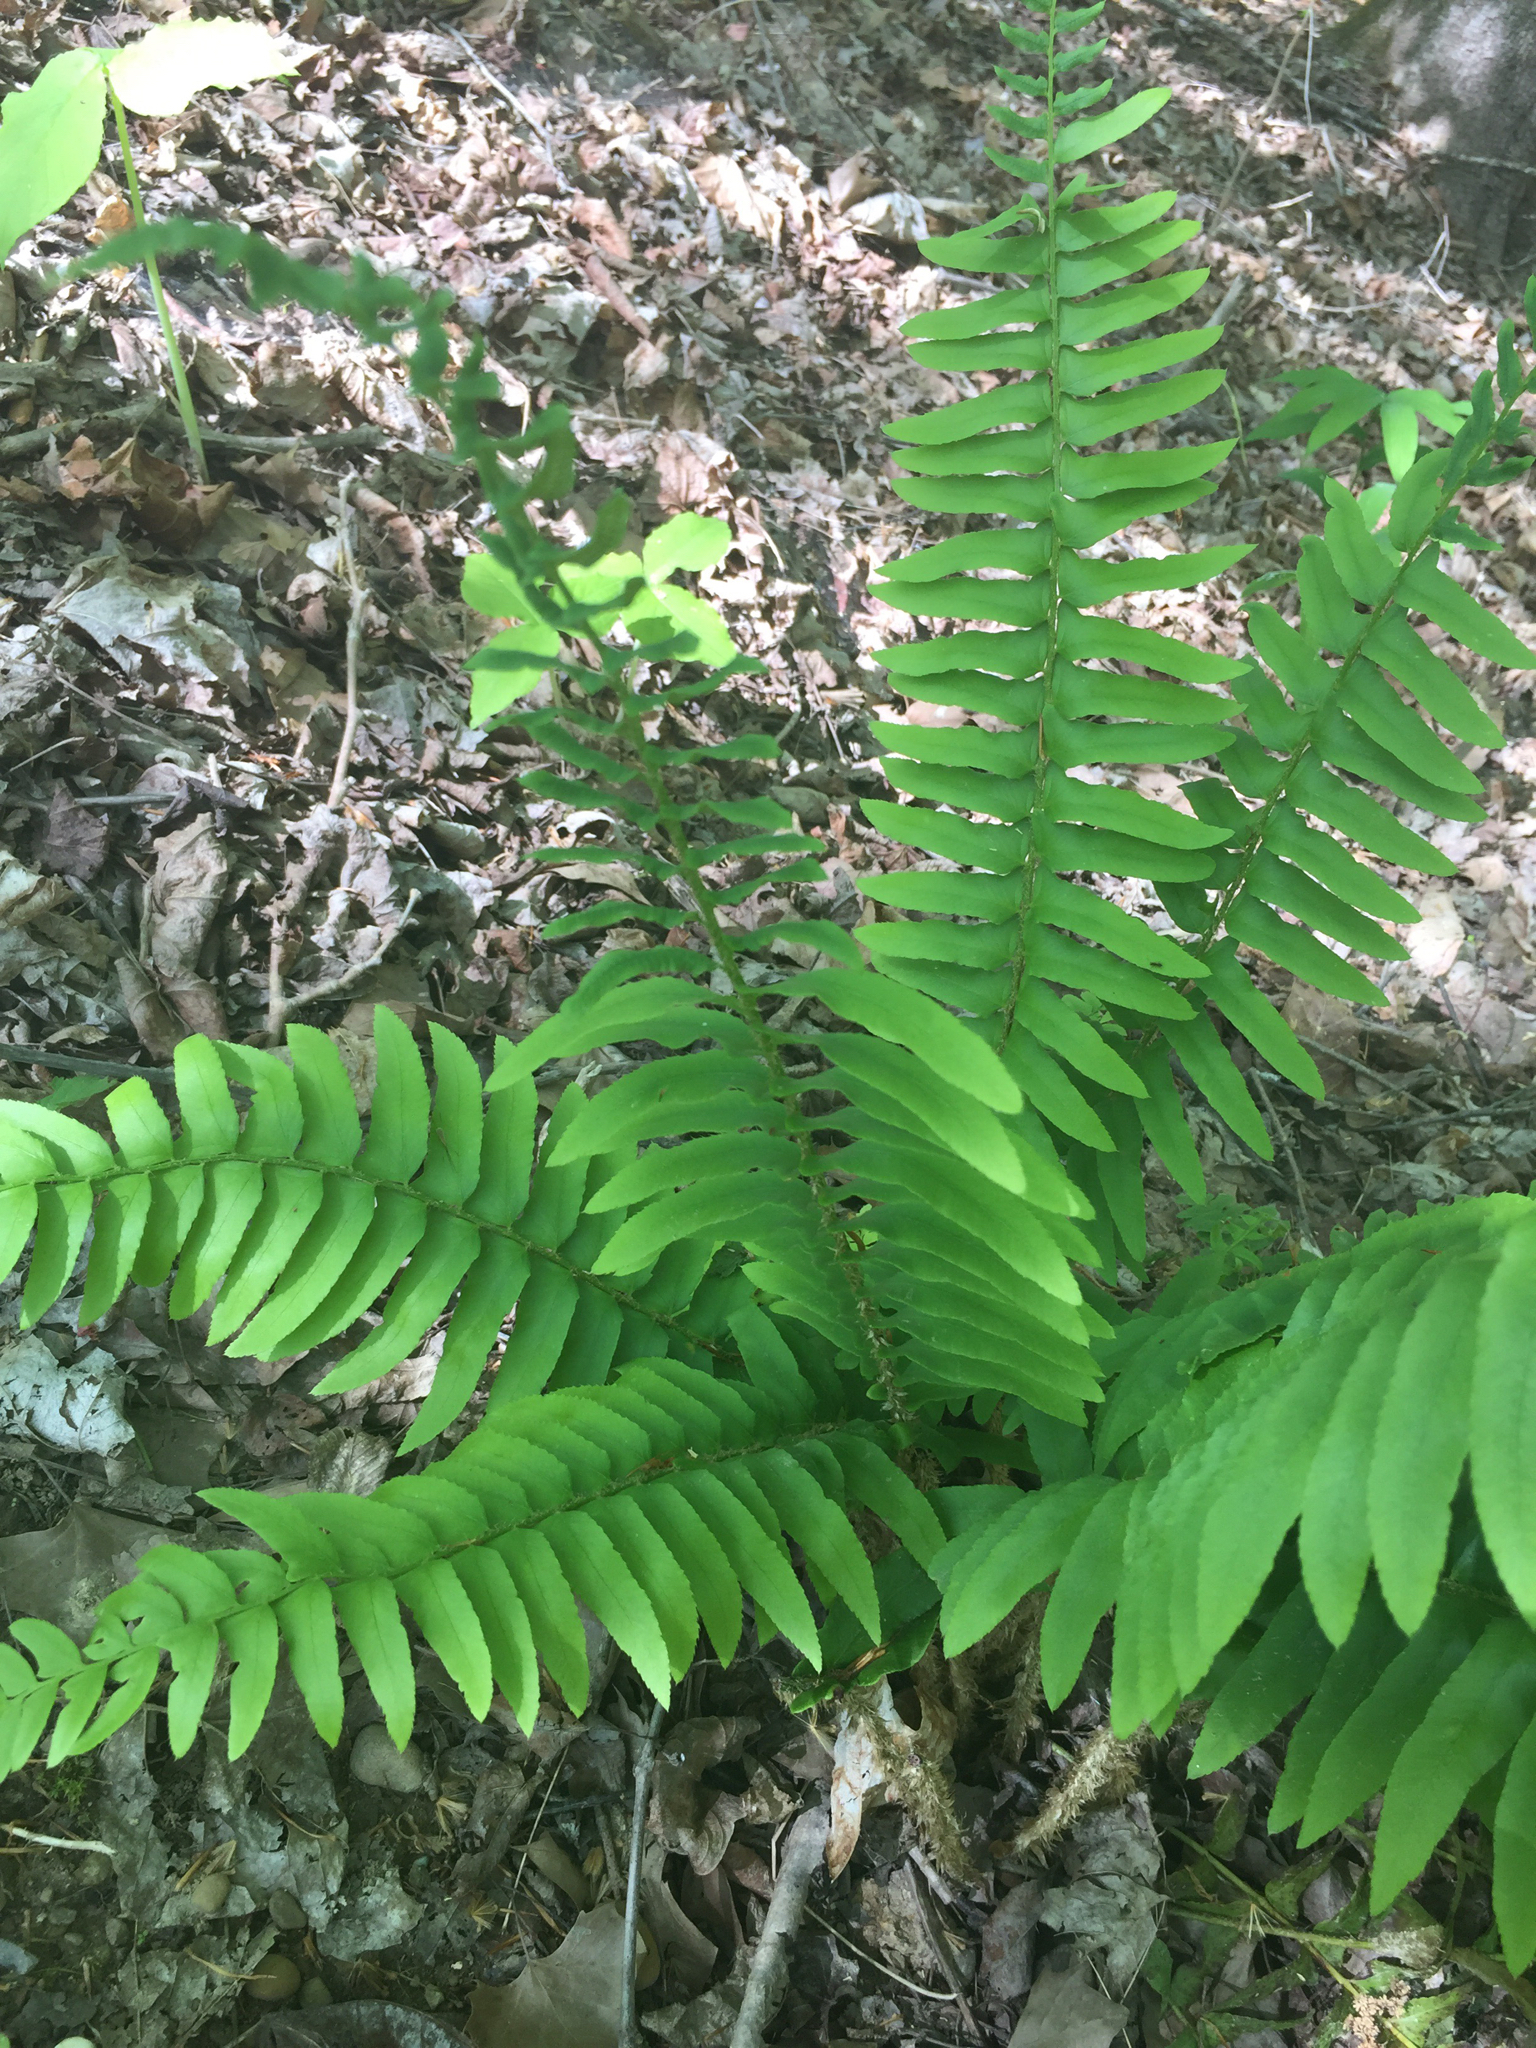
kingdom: Plantae
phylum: Tracheophyta
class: Polypodiopsida
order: Polypodiales
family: Dryopteridaceae
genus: Polystichum
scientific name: Polystichum acrostichoides
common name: Christmas fern
